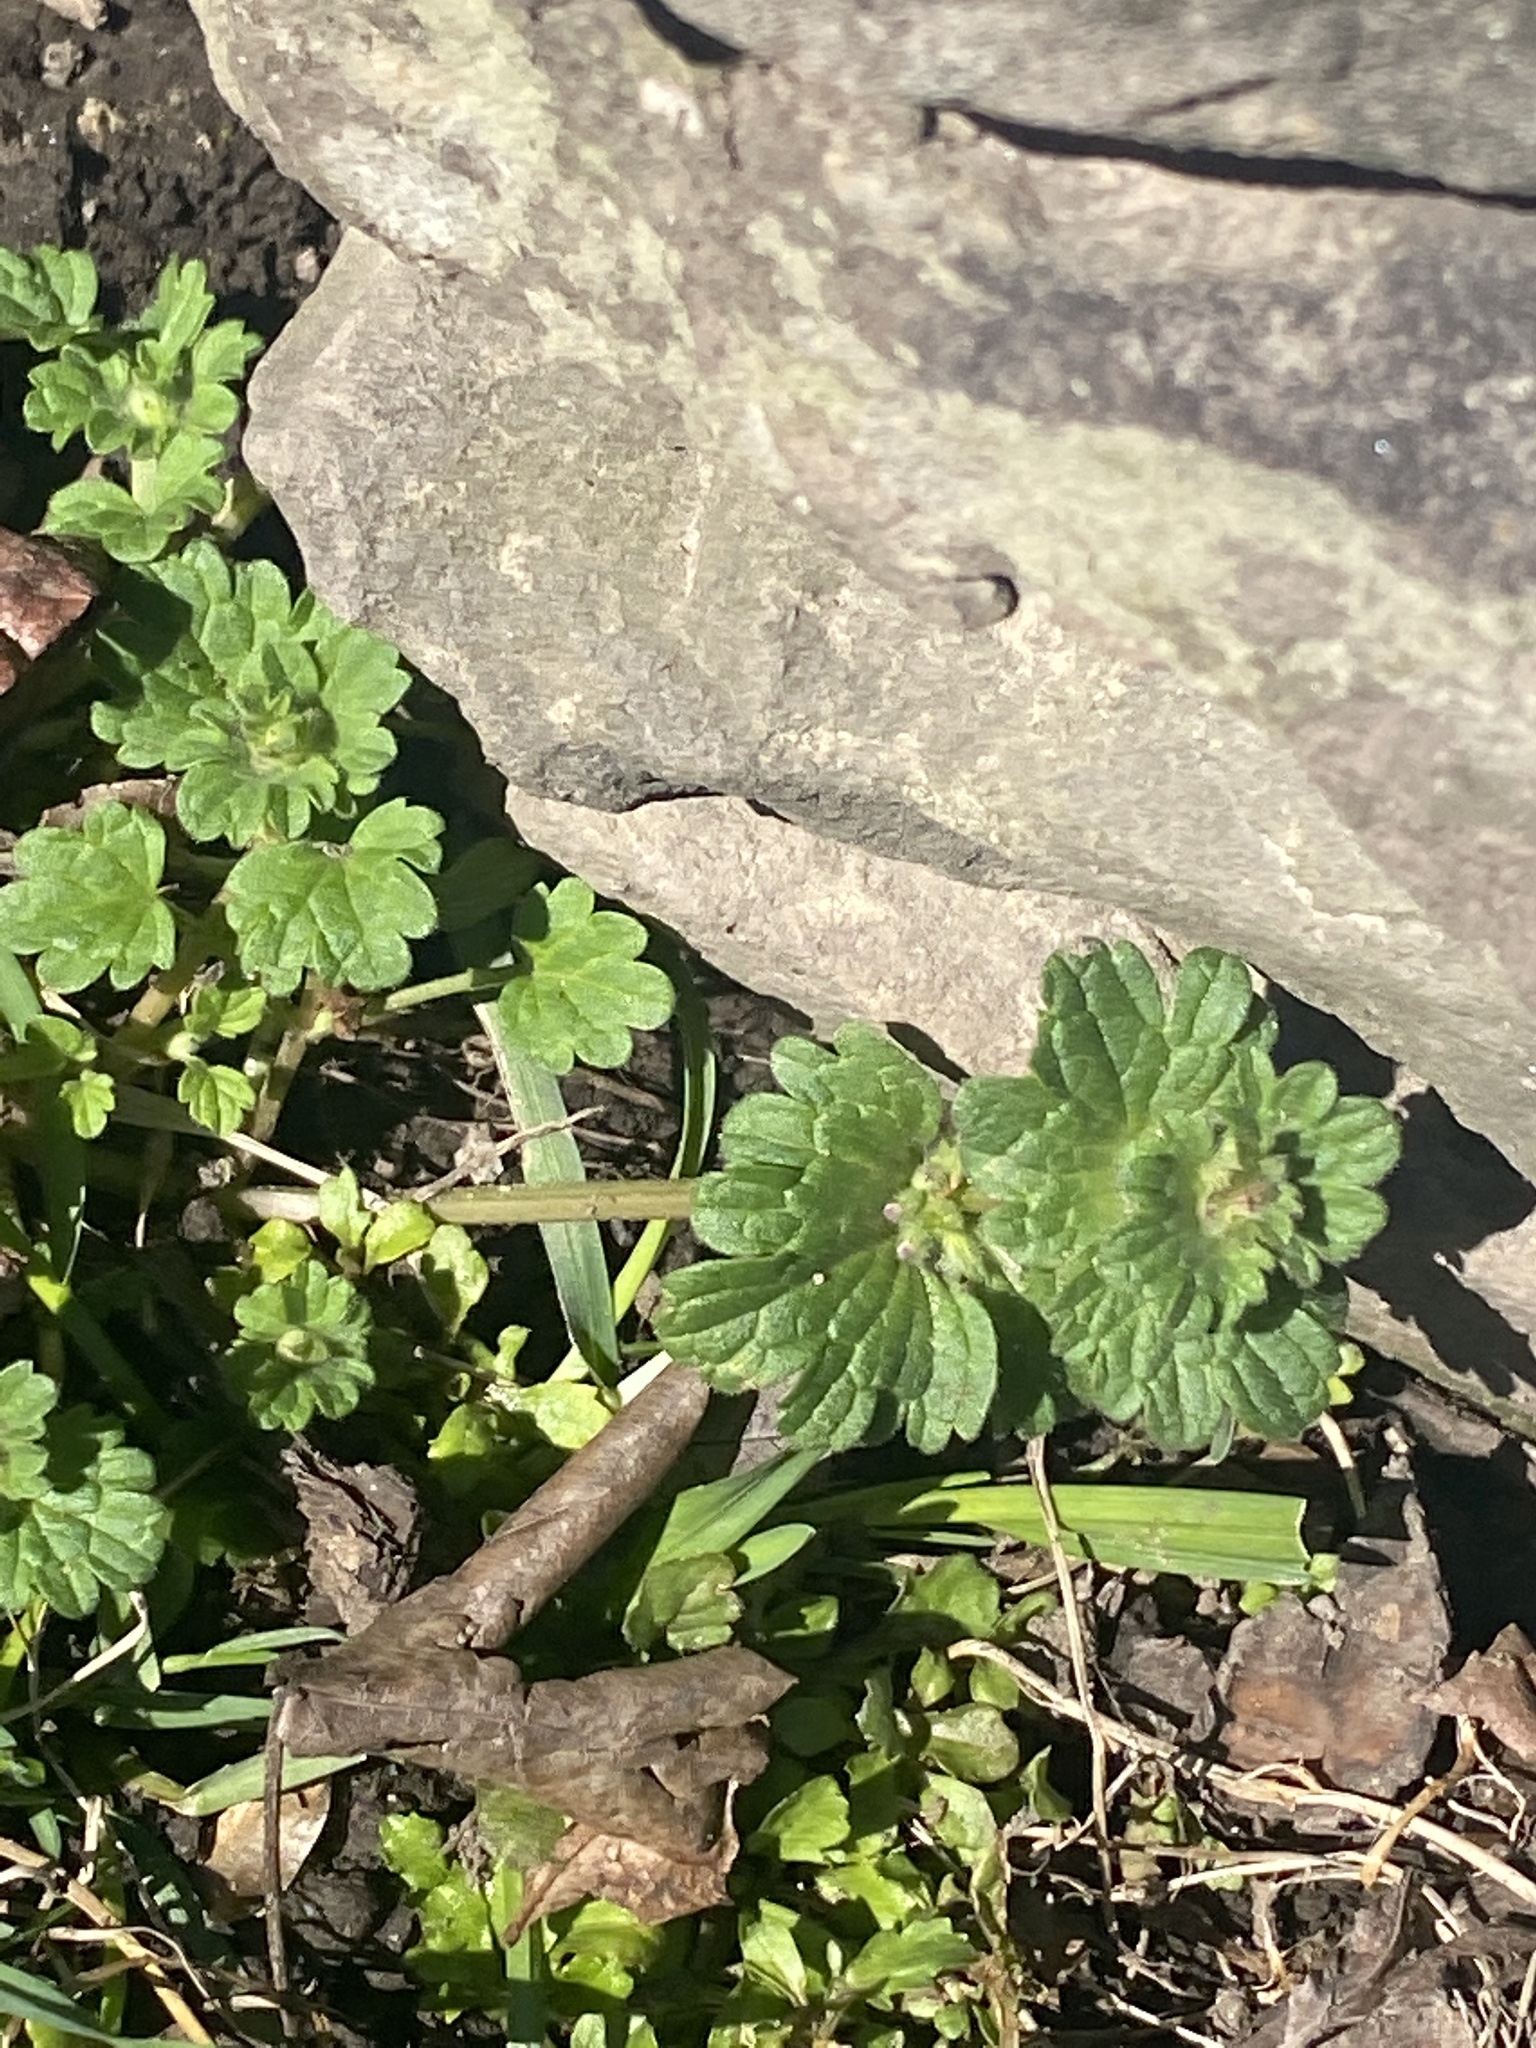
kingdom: Plantae
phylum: Tracheophyta
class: Magnoliopsida
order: Lamiales
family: Lamiaceae
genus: Lamium
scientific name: Lamium amplexicaule
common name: Henbit dead-nettle
